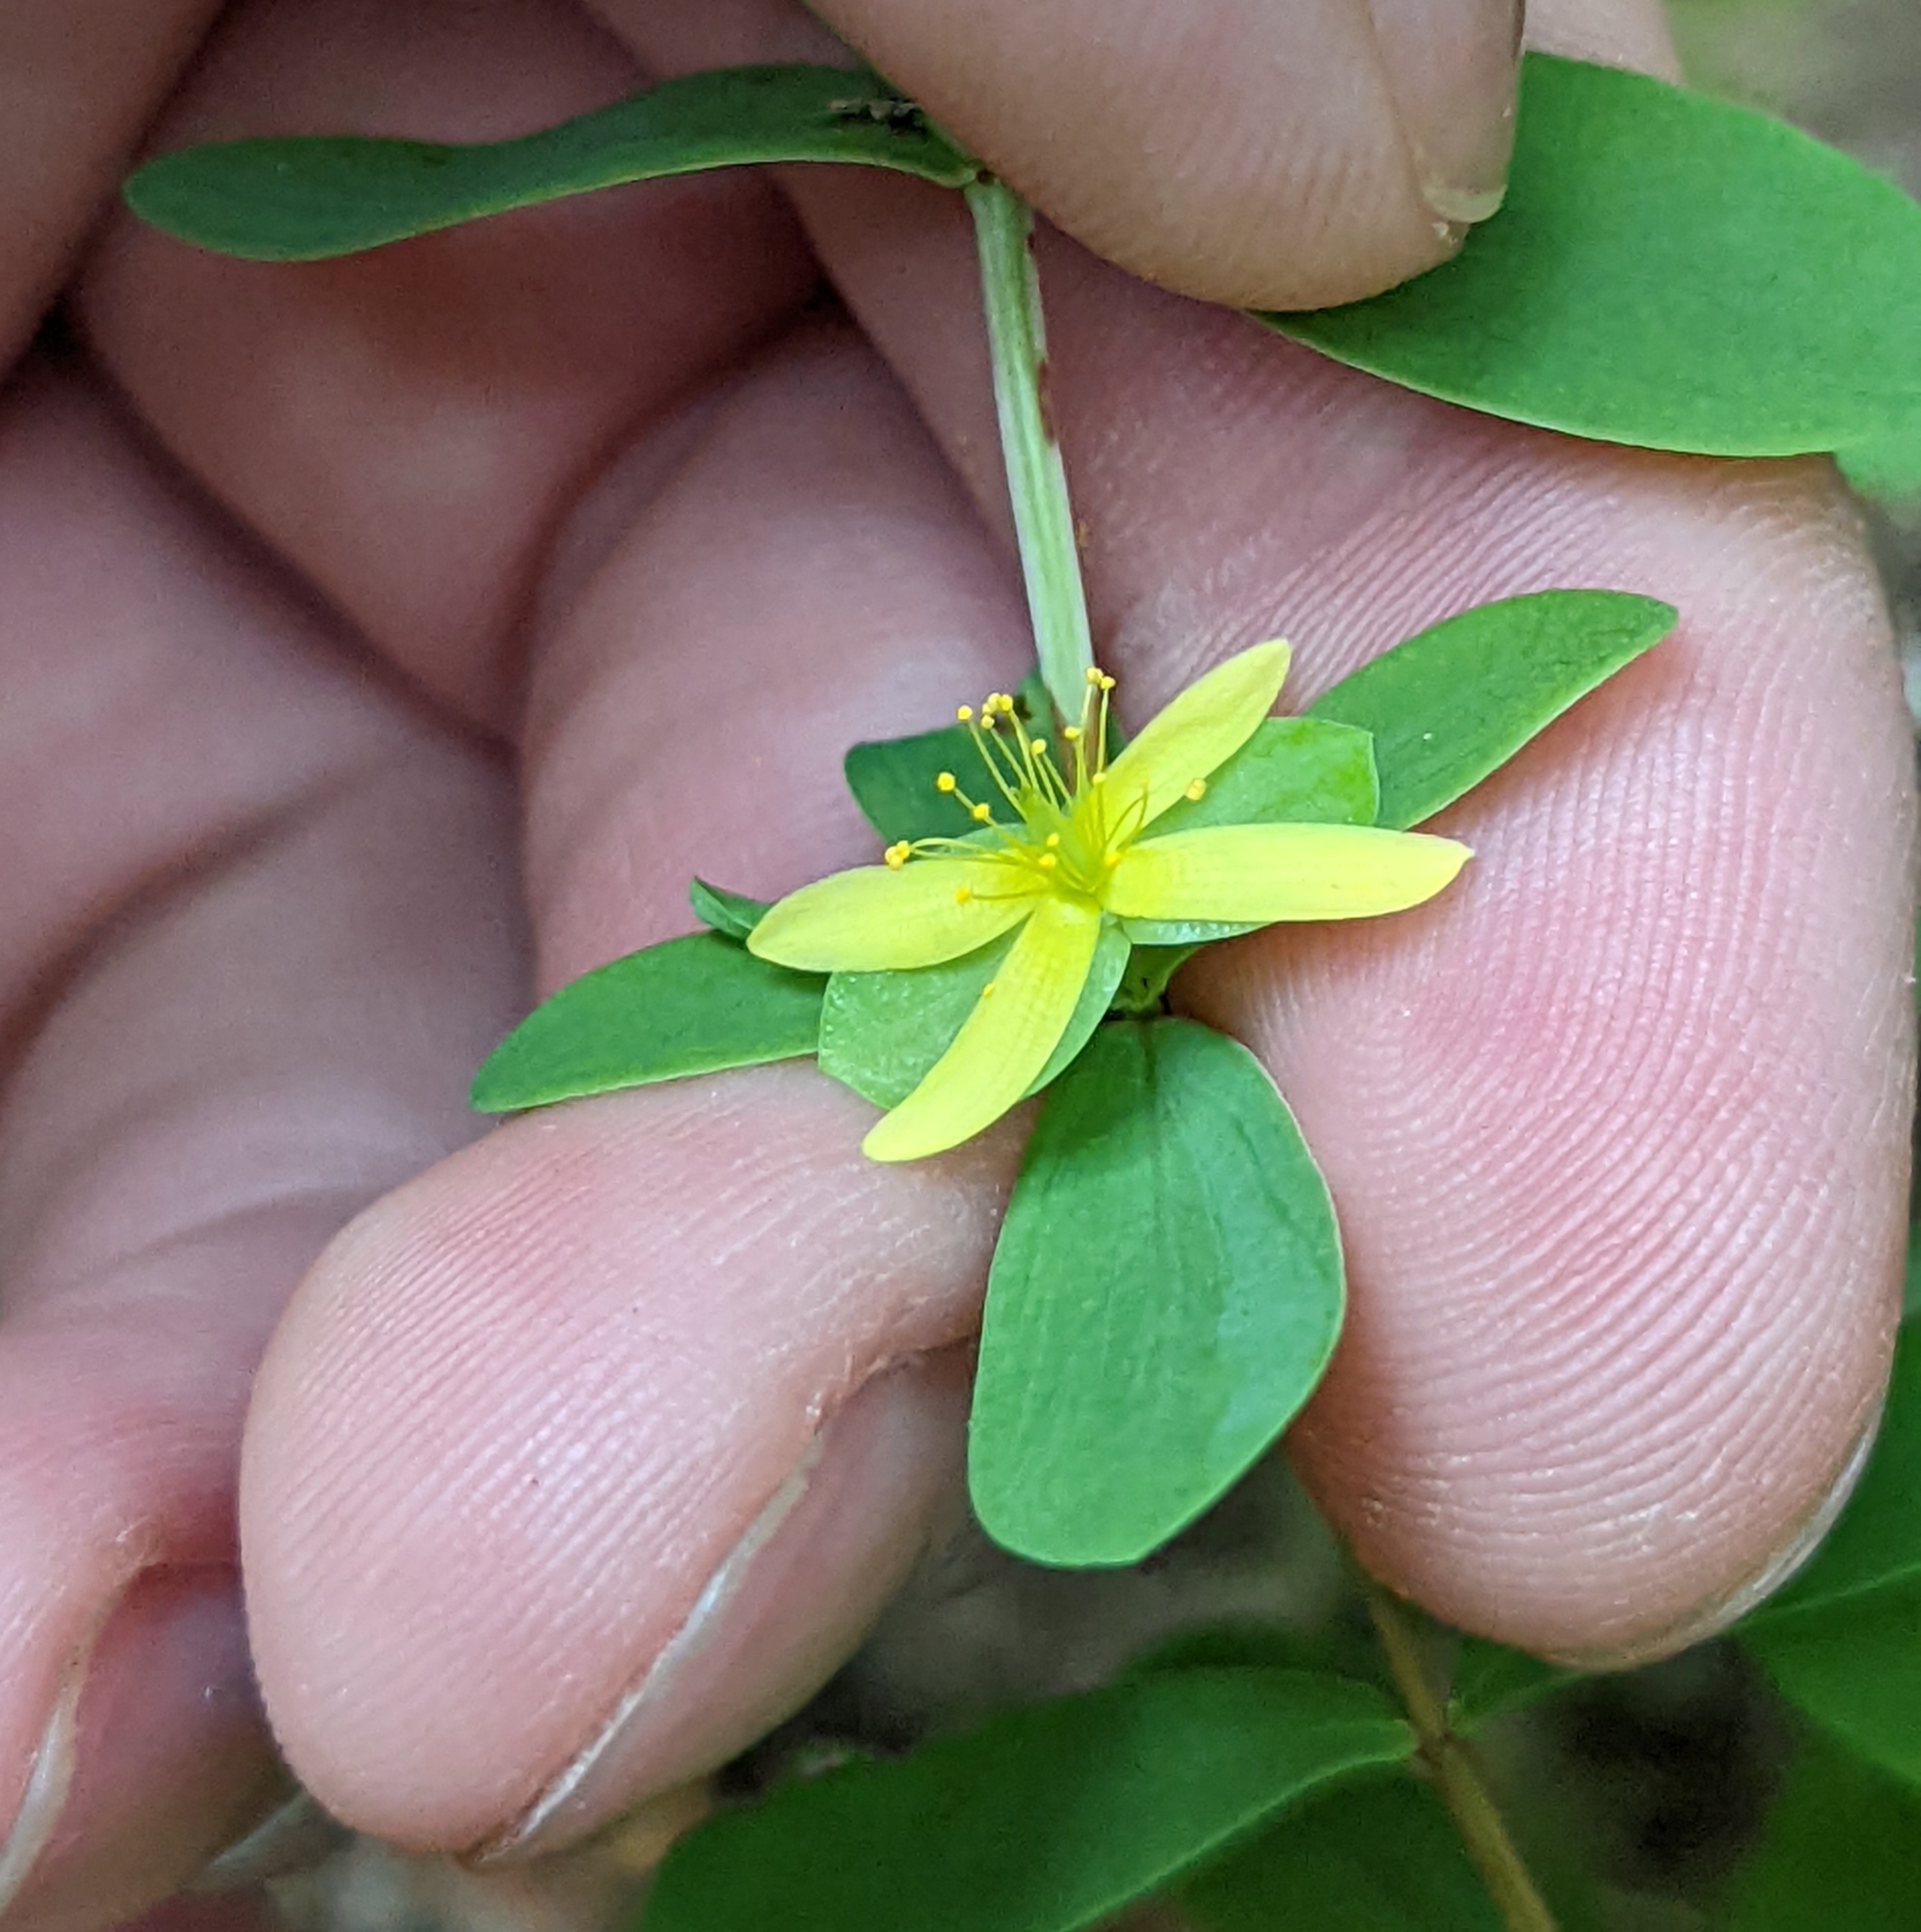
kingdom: Plantae
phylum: Tracheophyta
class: Magnoliopsida
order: Malpighiales
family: Hypericaceae
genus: Hypericum
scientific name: Hypericum hypericoides
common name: St. andrew's cross
